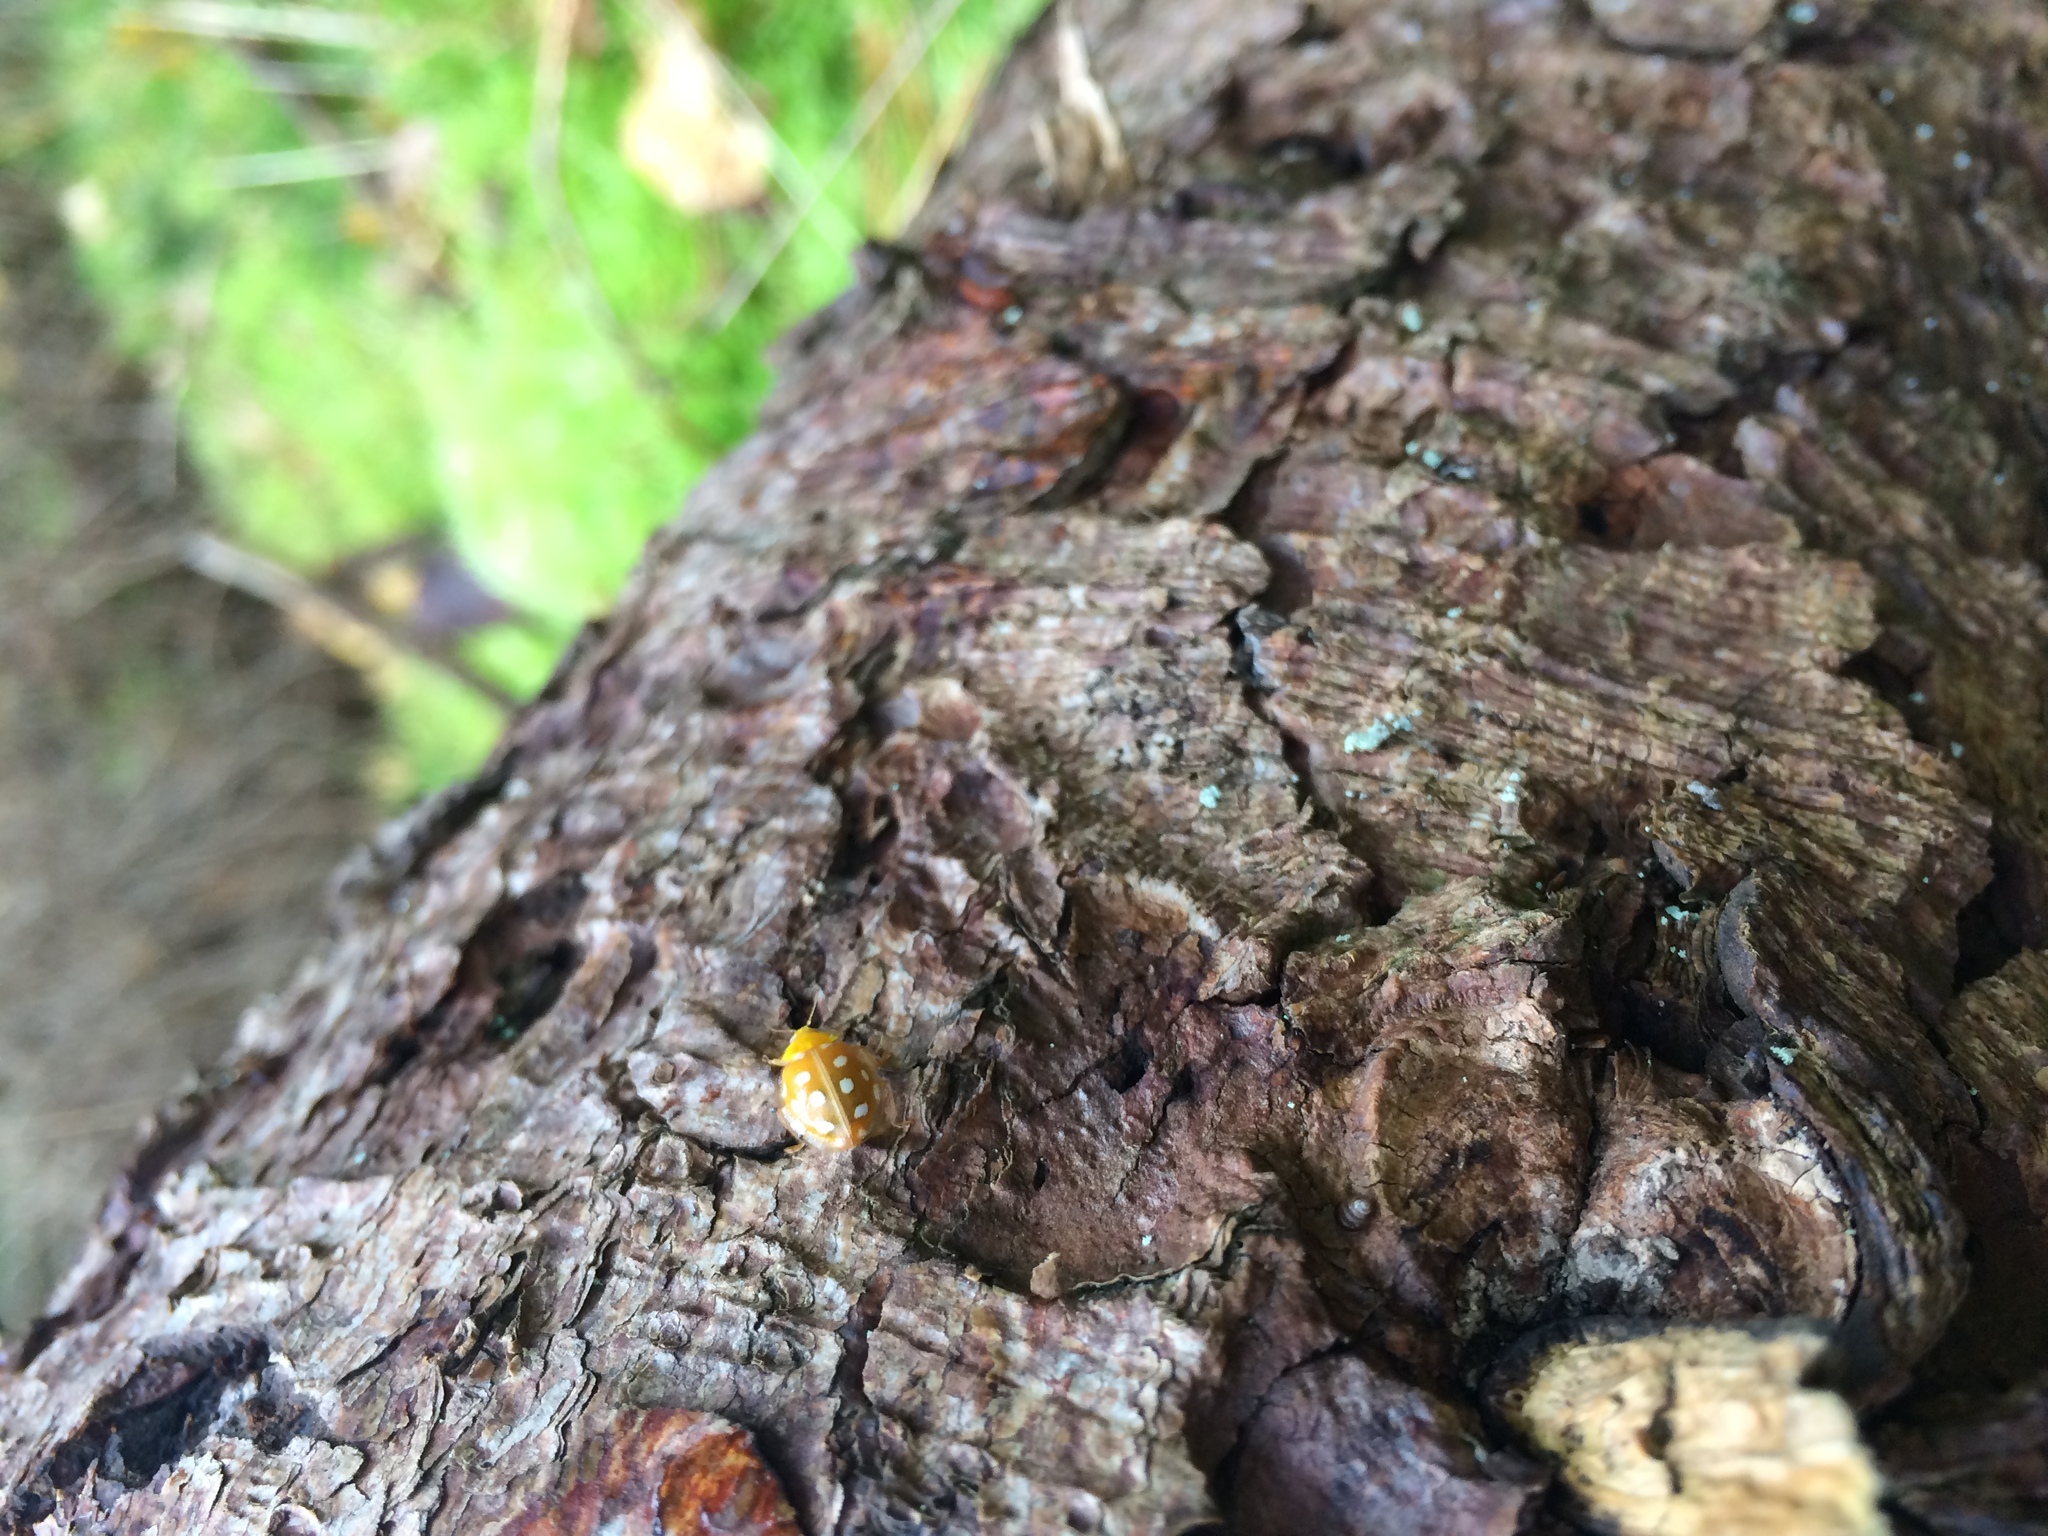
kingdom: Animalia
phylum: Arthropoda
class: Insecta
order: Coleoptera
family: Coccinellidae
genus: Halyzia
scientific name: Halyzia sedecimguttata
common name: Orange ladybird
